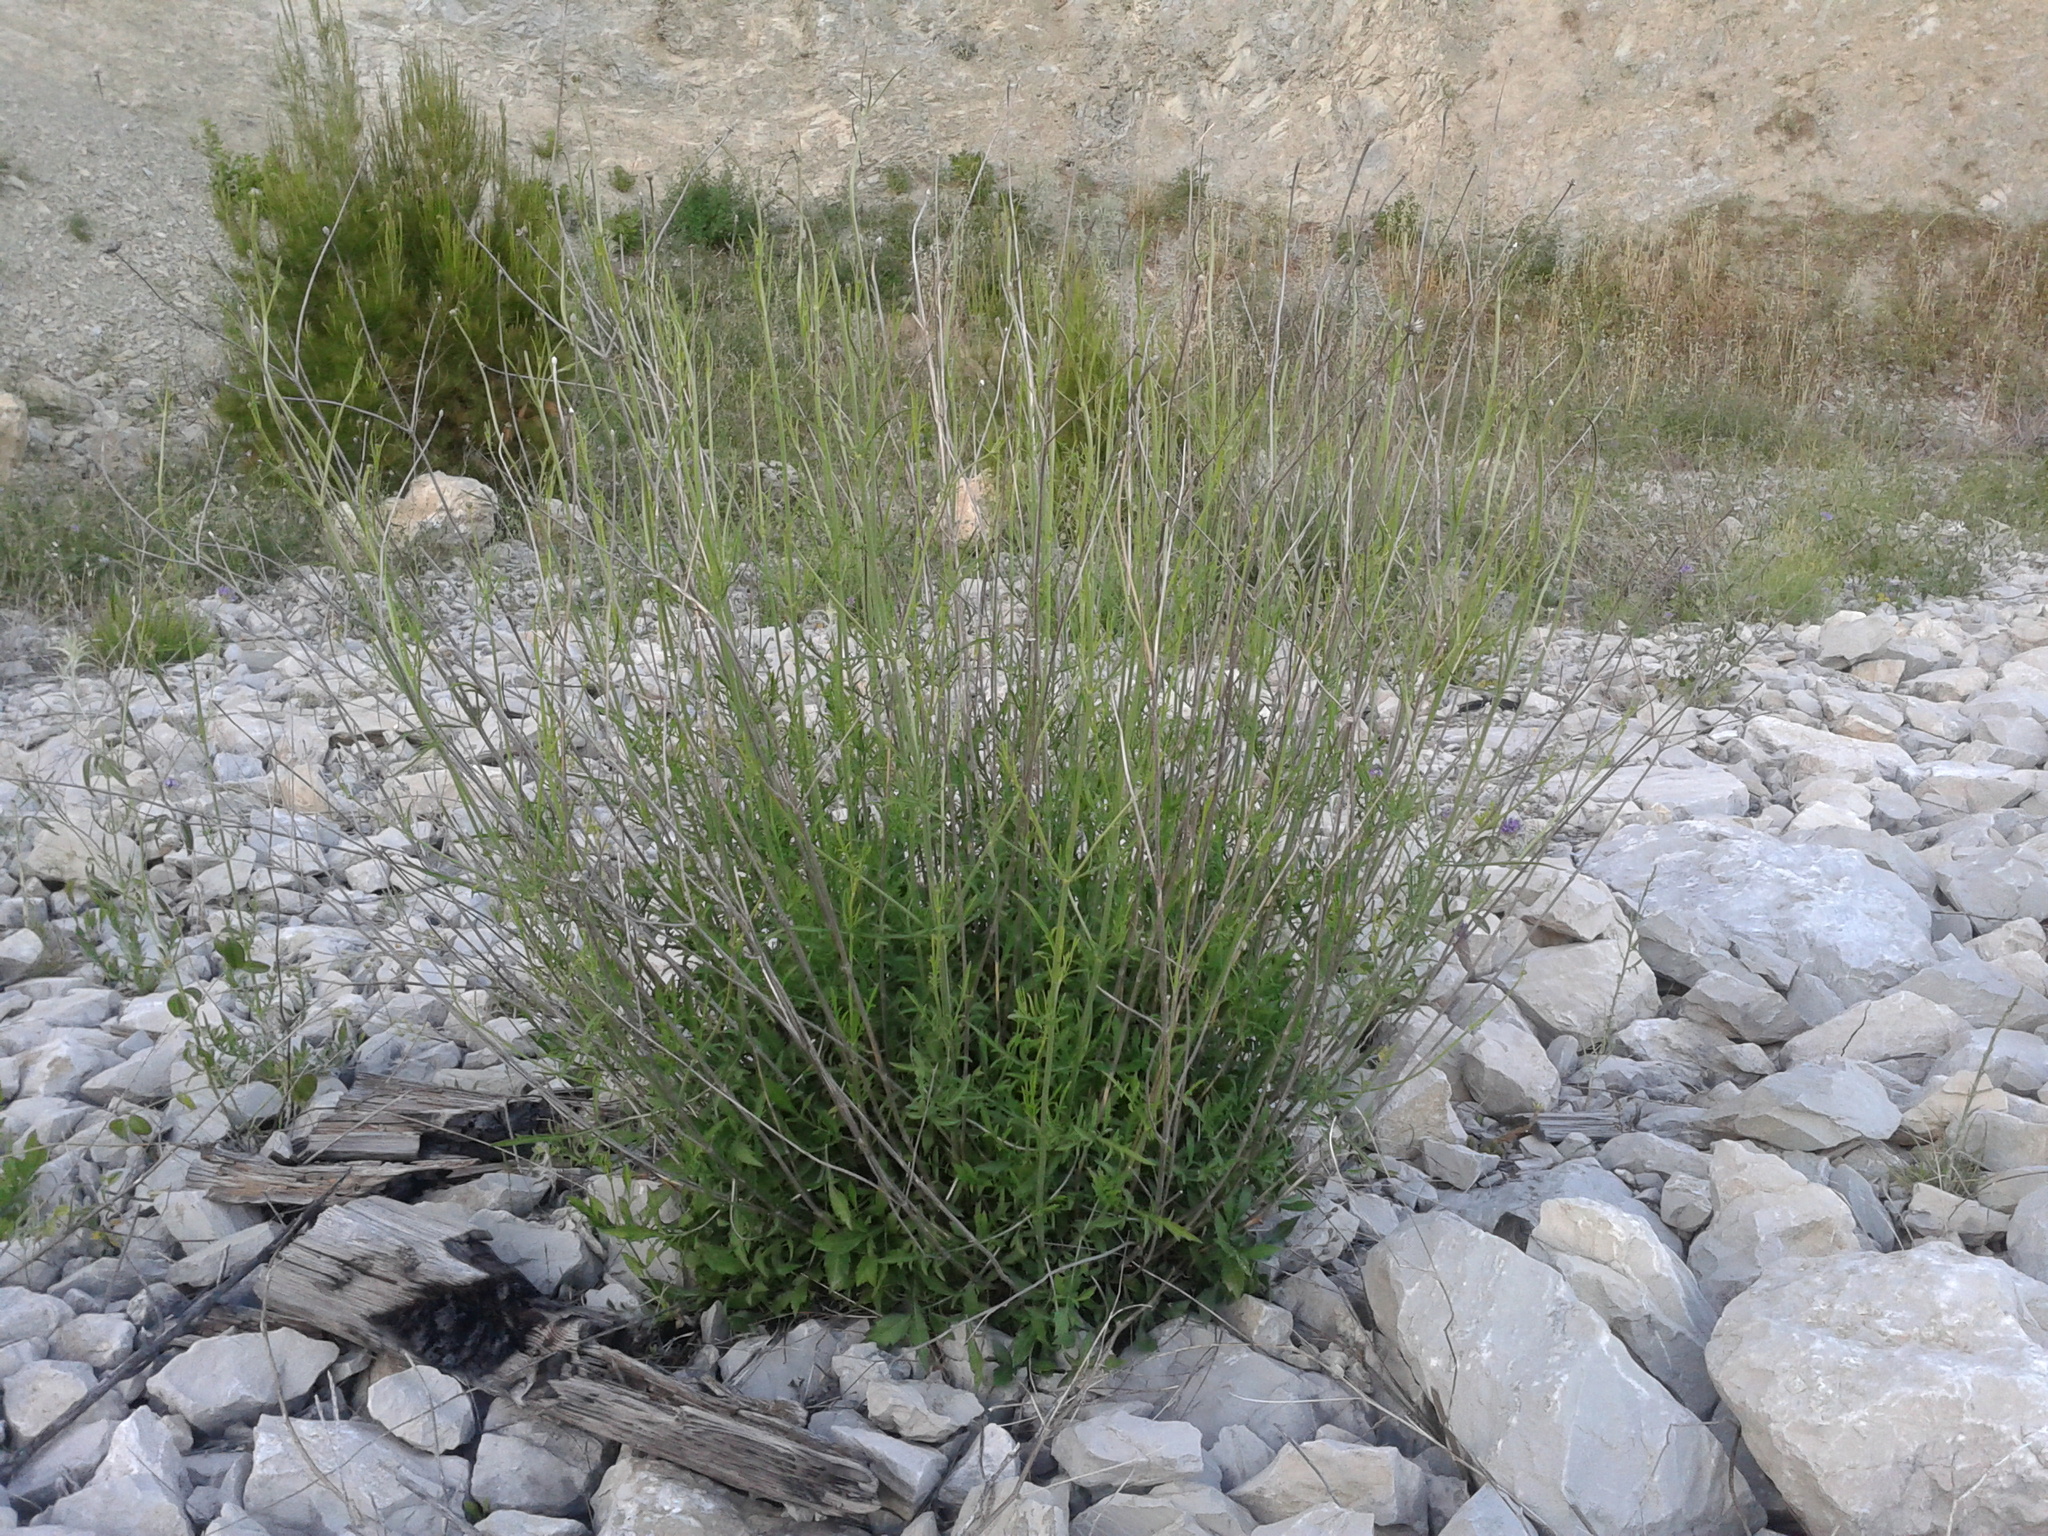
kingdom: Plantae
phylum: Tracheophyta
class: Magnoliopsida
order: Lamiales
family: Scrophulariaceae
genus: Scrophularia
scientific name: Scrophularia canina
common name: French figwort
